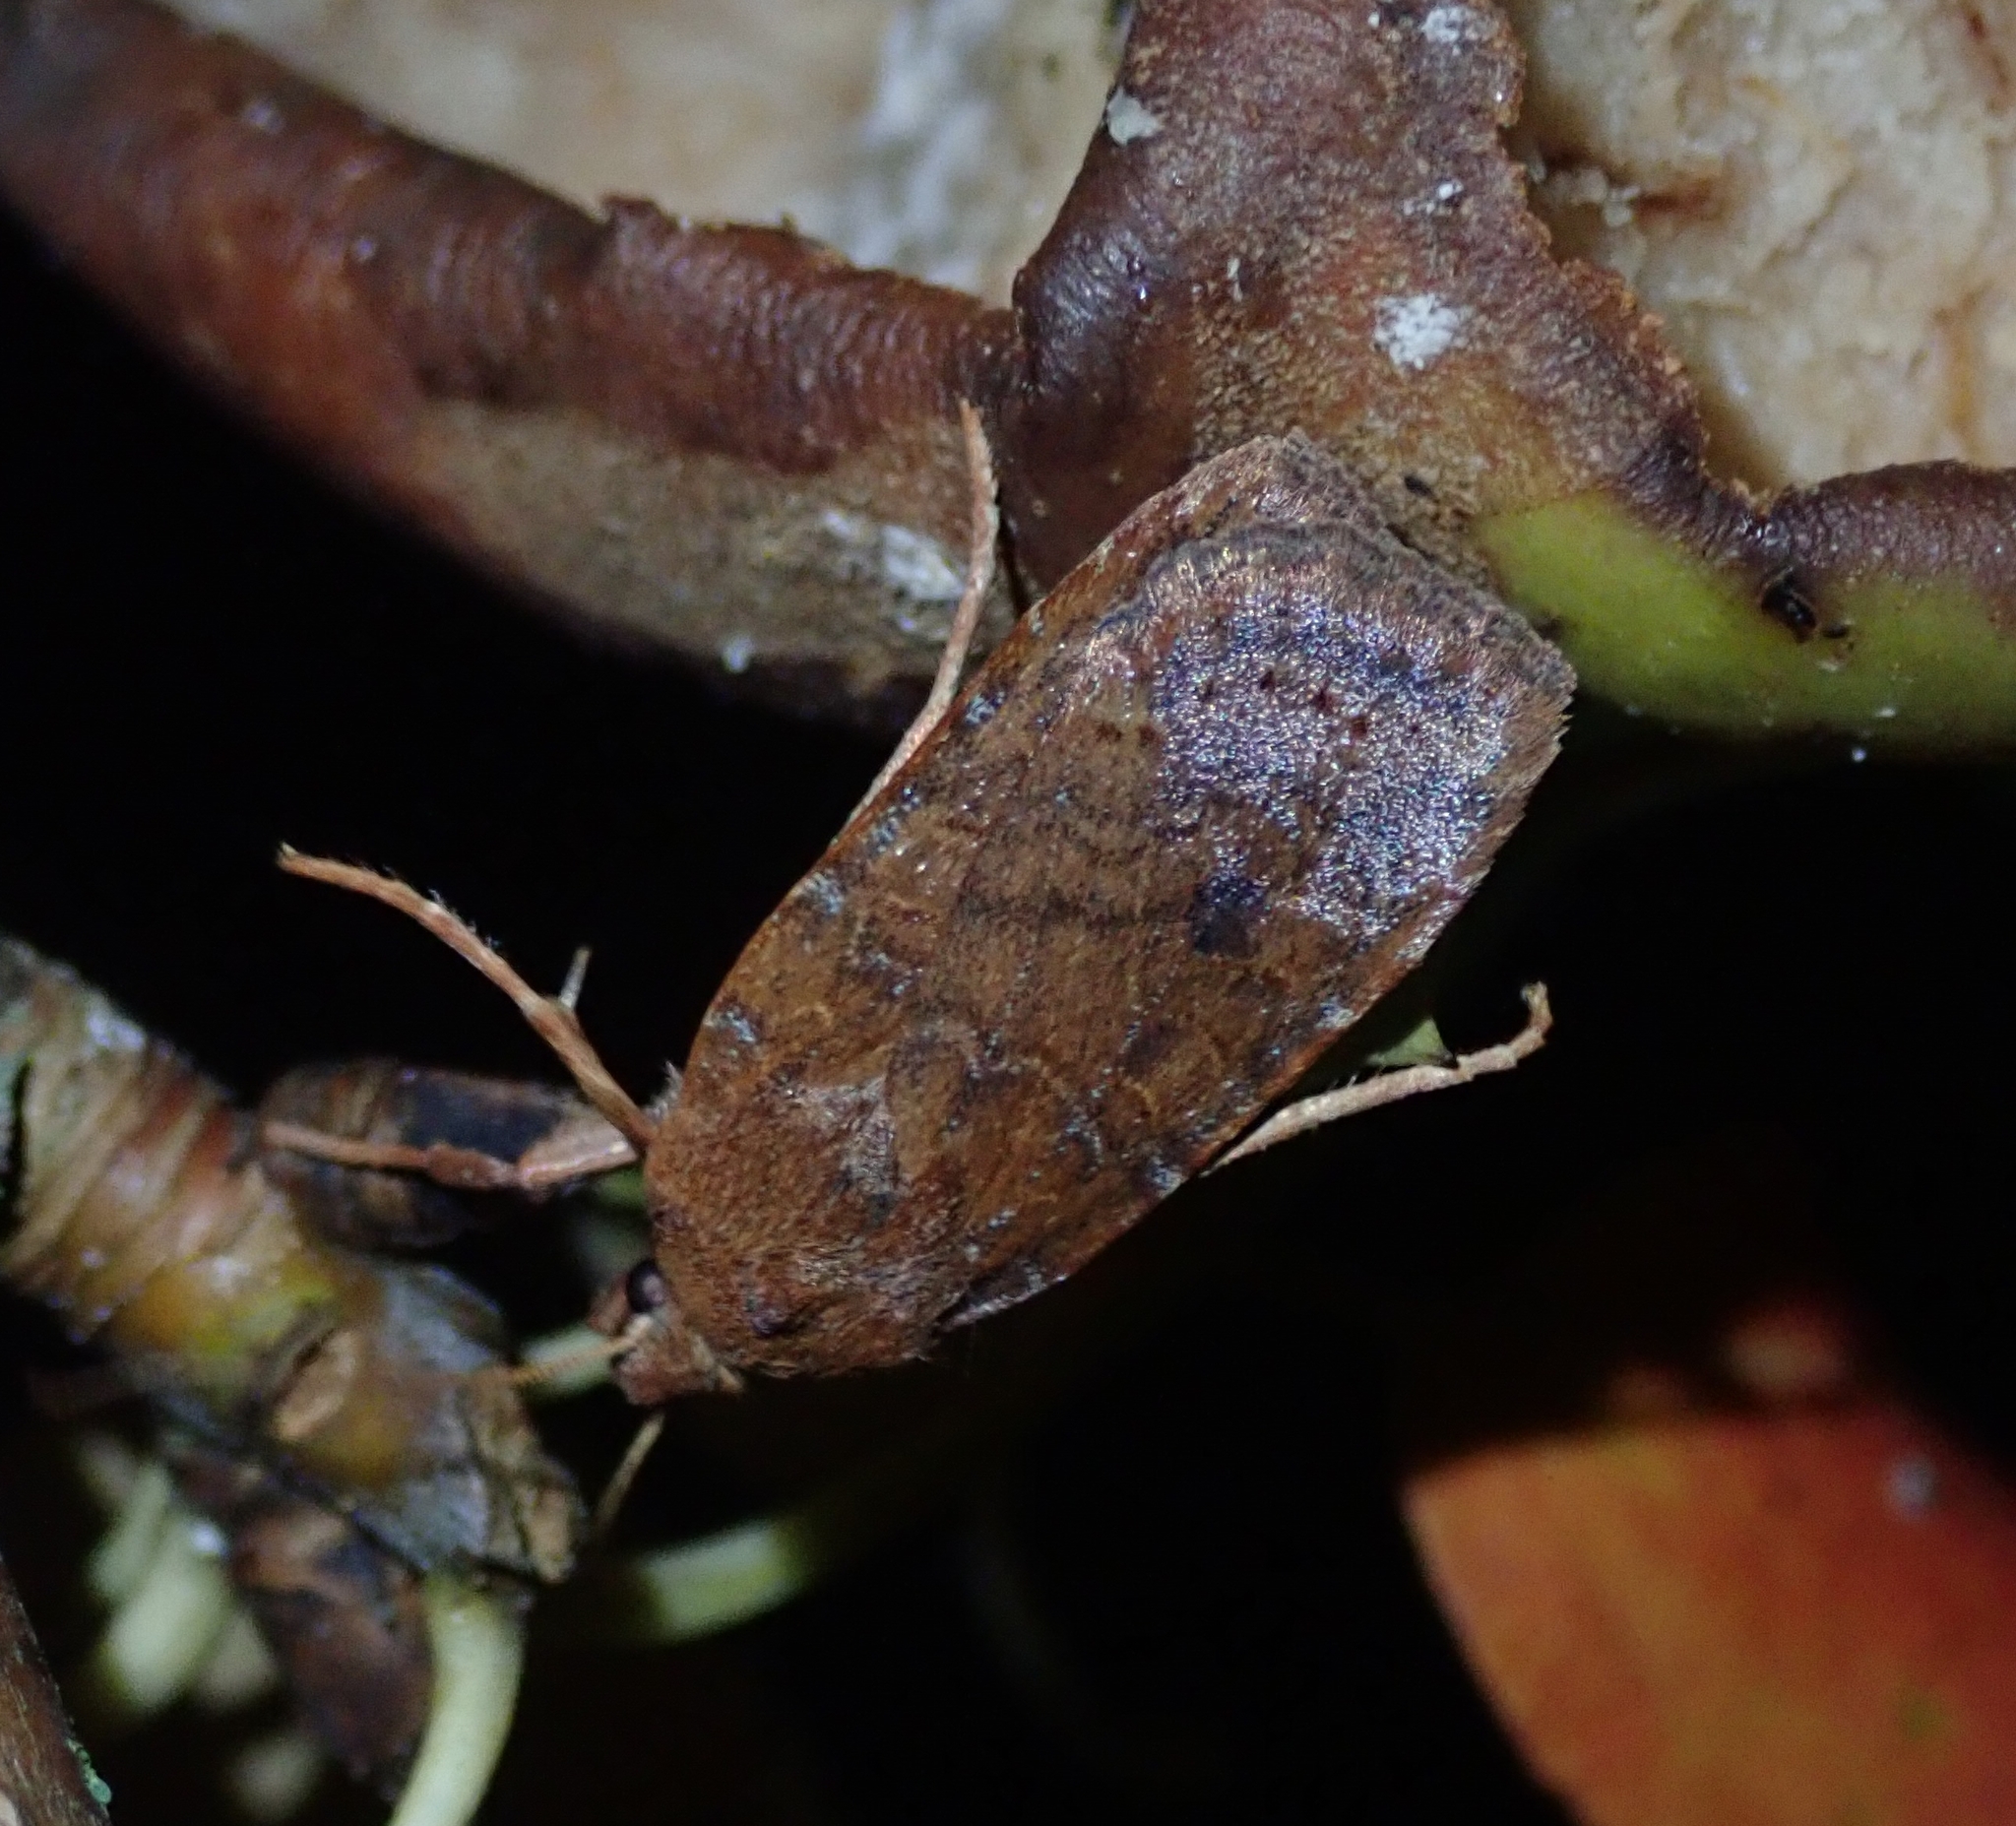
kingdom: Animalia
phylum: Arthropoda
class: Insecta
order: Lepidoptera
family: Noctuidae
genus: Conistra
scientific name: Conistra vaccinii
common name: Chestnut
